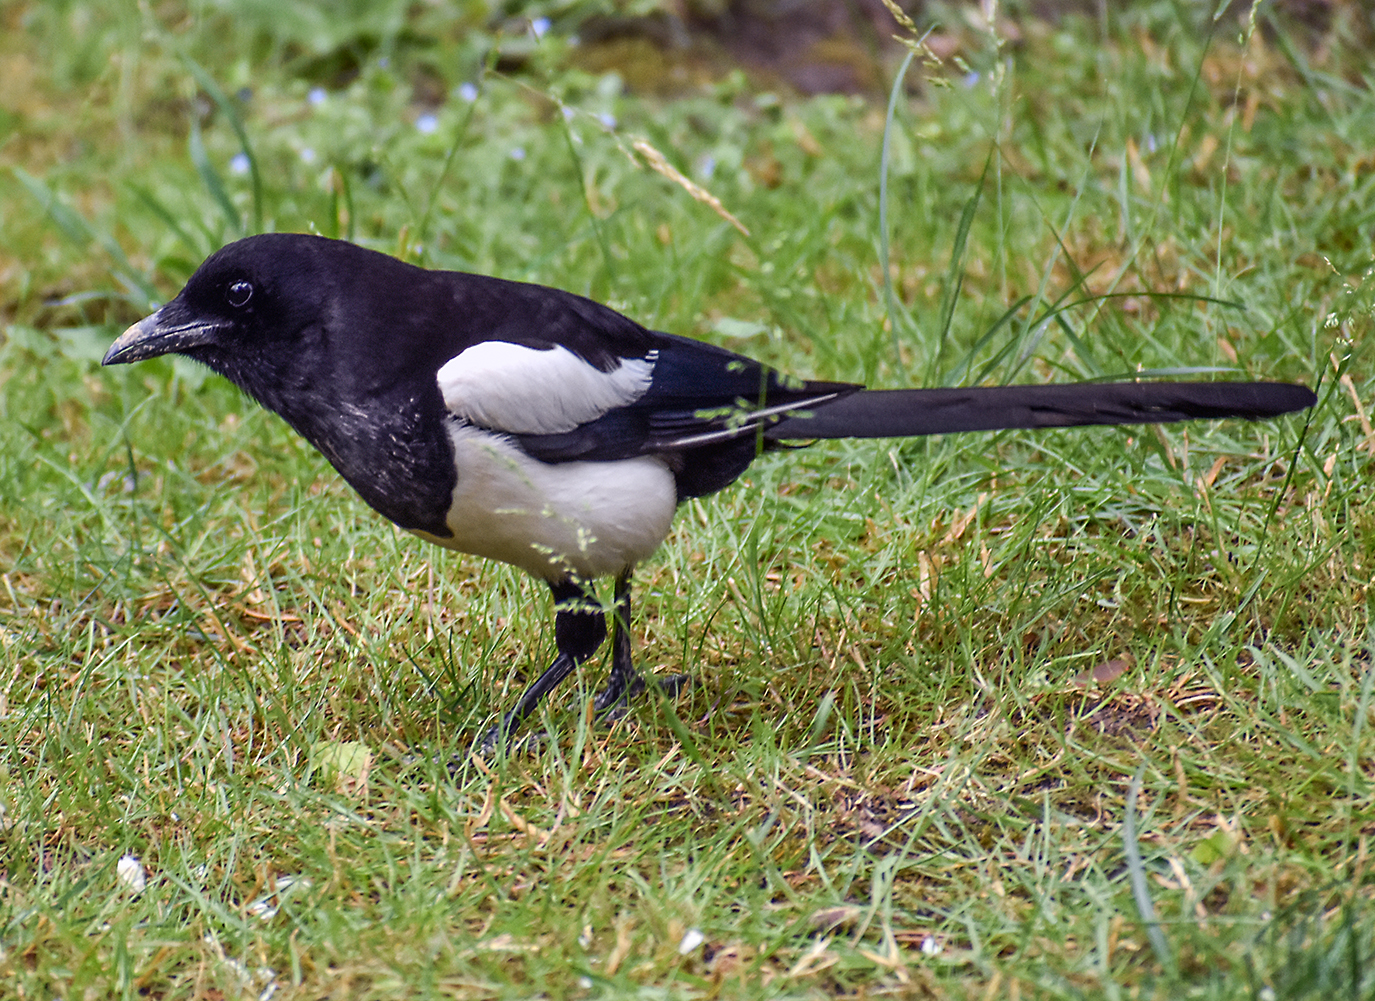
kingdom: Animalia
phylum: Chordata
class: Aves
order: Passeriformes
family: Corvidae
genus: Pica
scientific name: Pica pica
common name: Eurasian magpie
